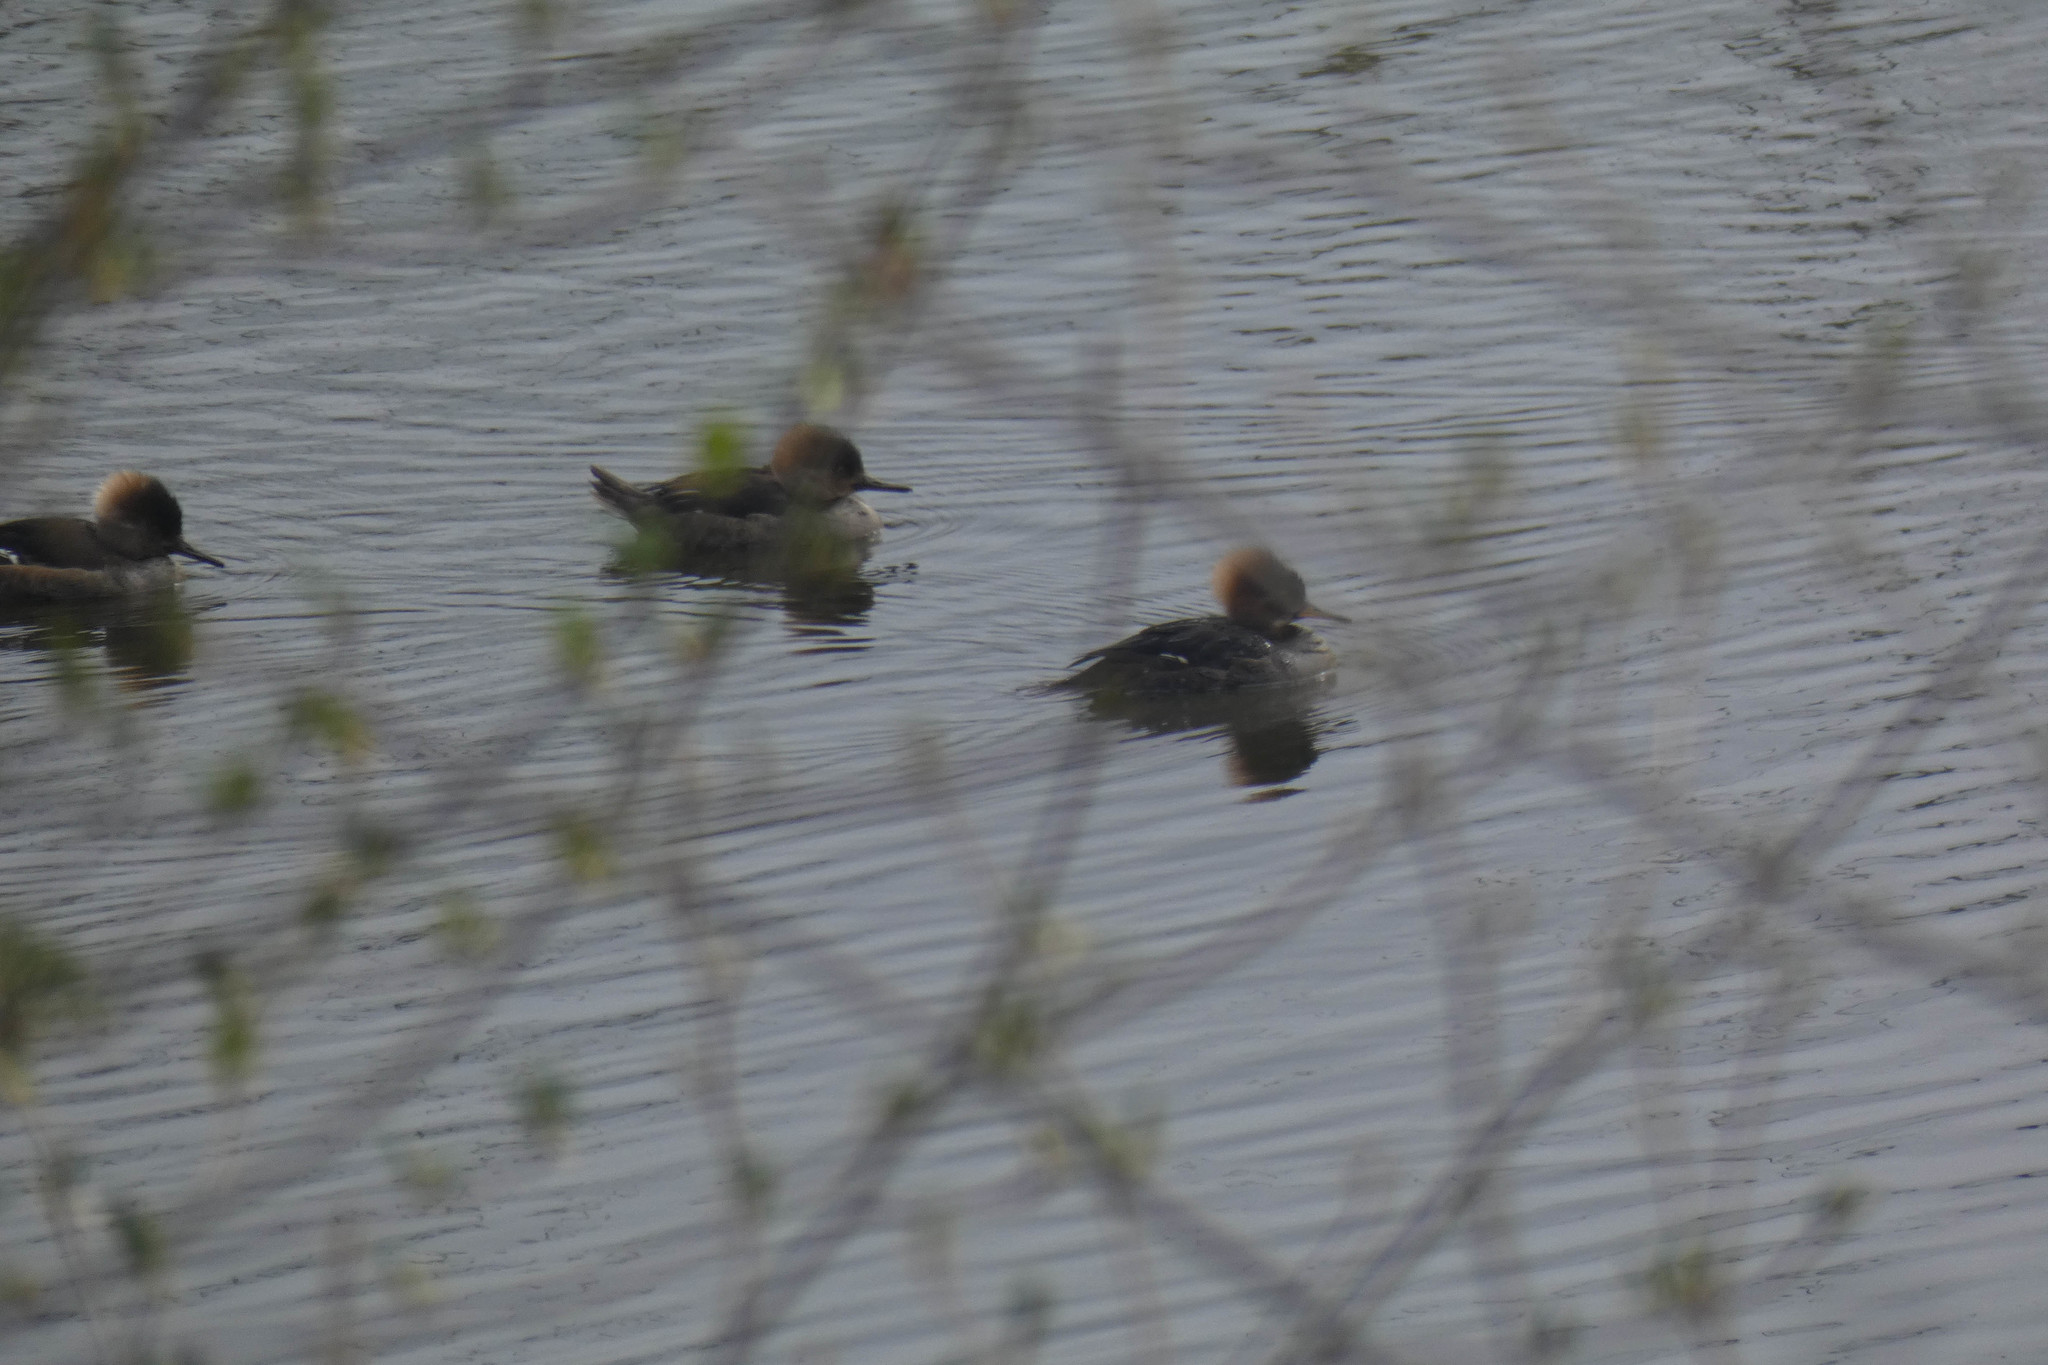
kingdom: Animalia
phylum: Chordata
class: Aves
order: Anseriformes
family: Anatidae
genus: Lophodytes
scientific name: Lophodytes cucullatus
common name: Hooded merganser
